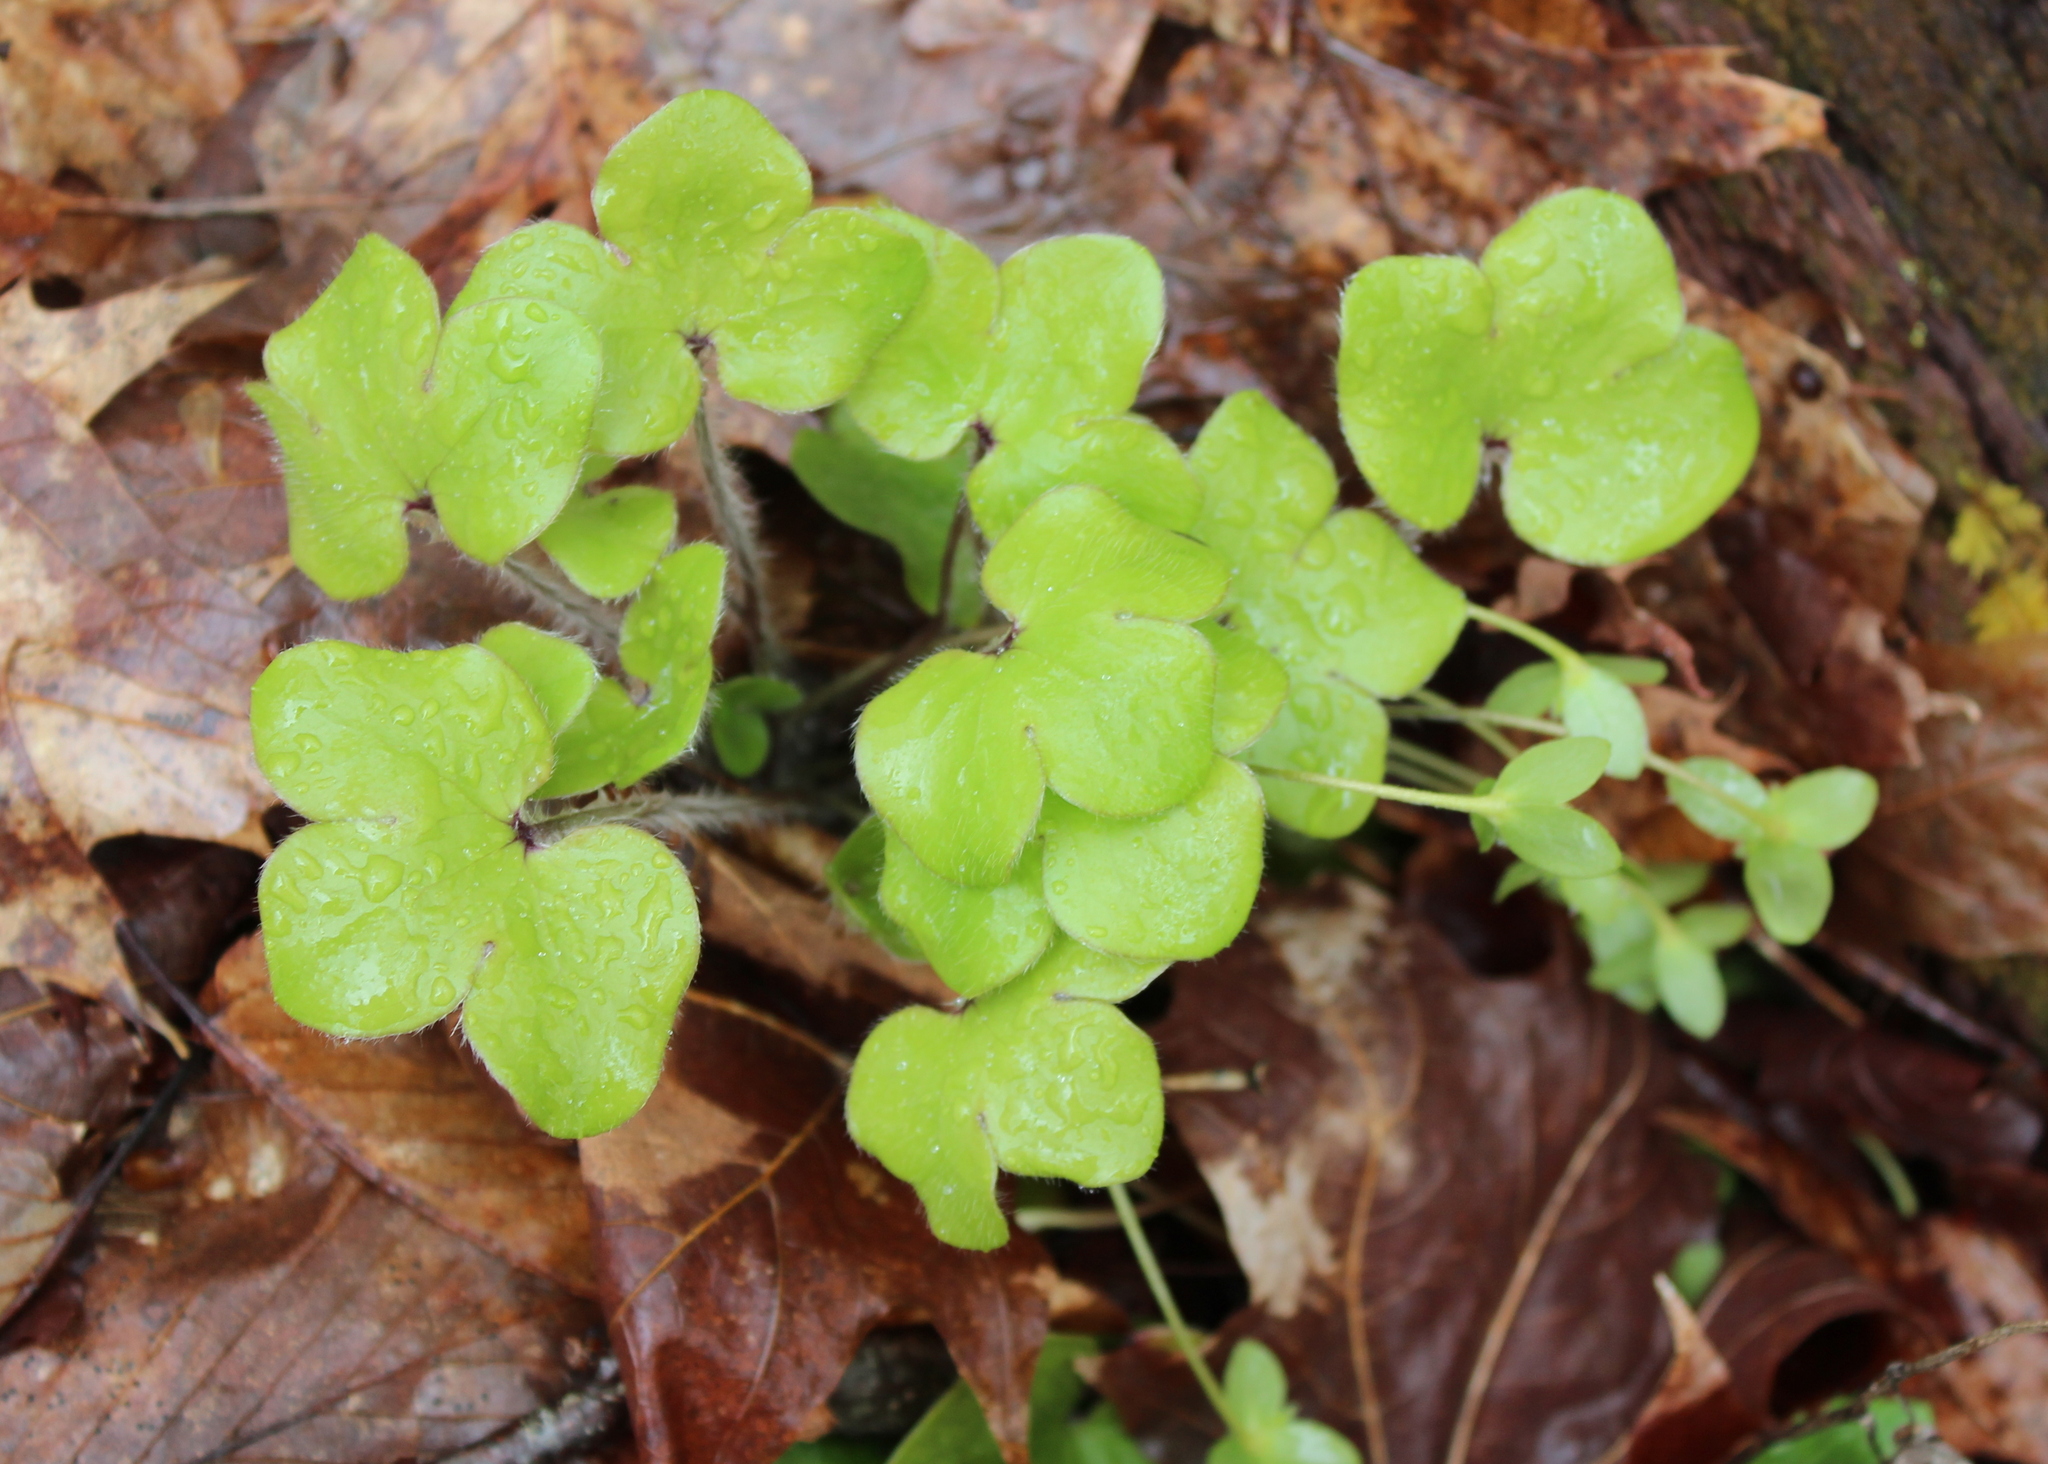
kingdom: Plantae
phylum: Tracheophyta
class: Magnoliopsida
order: Ranunculales
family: Ranunculaceae
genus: Hepatica
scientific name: Hepatica americana
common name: American hepatica
